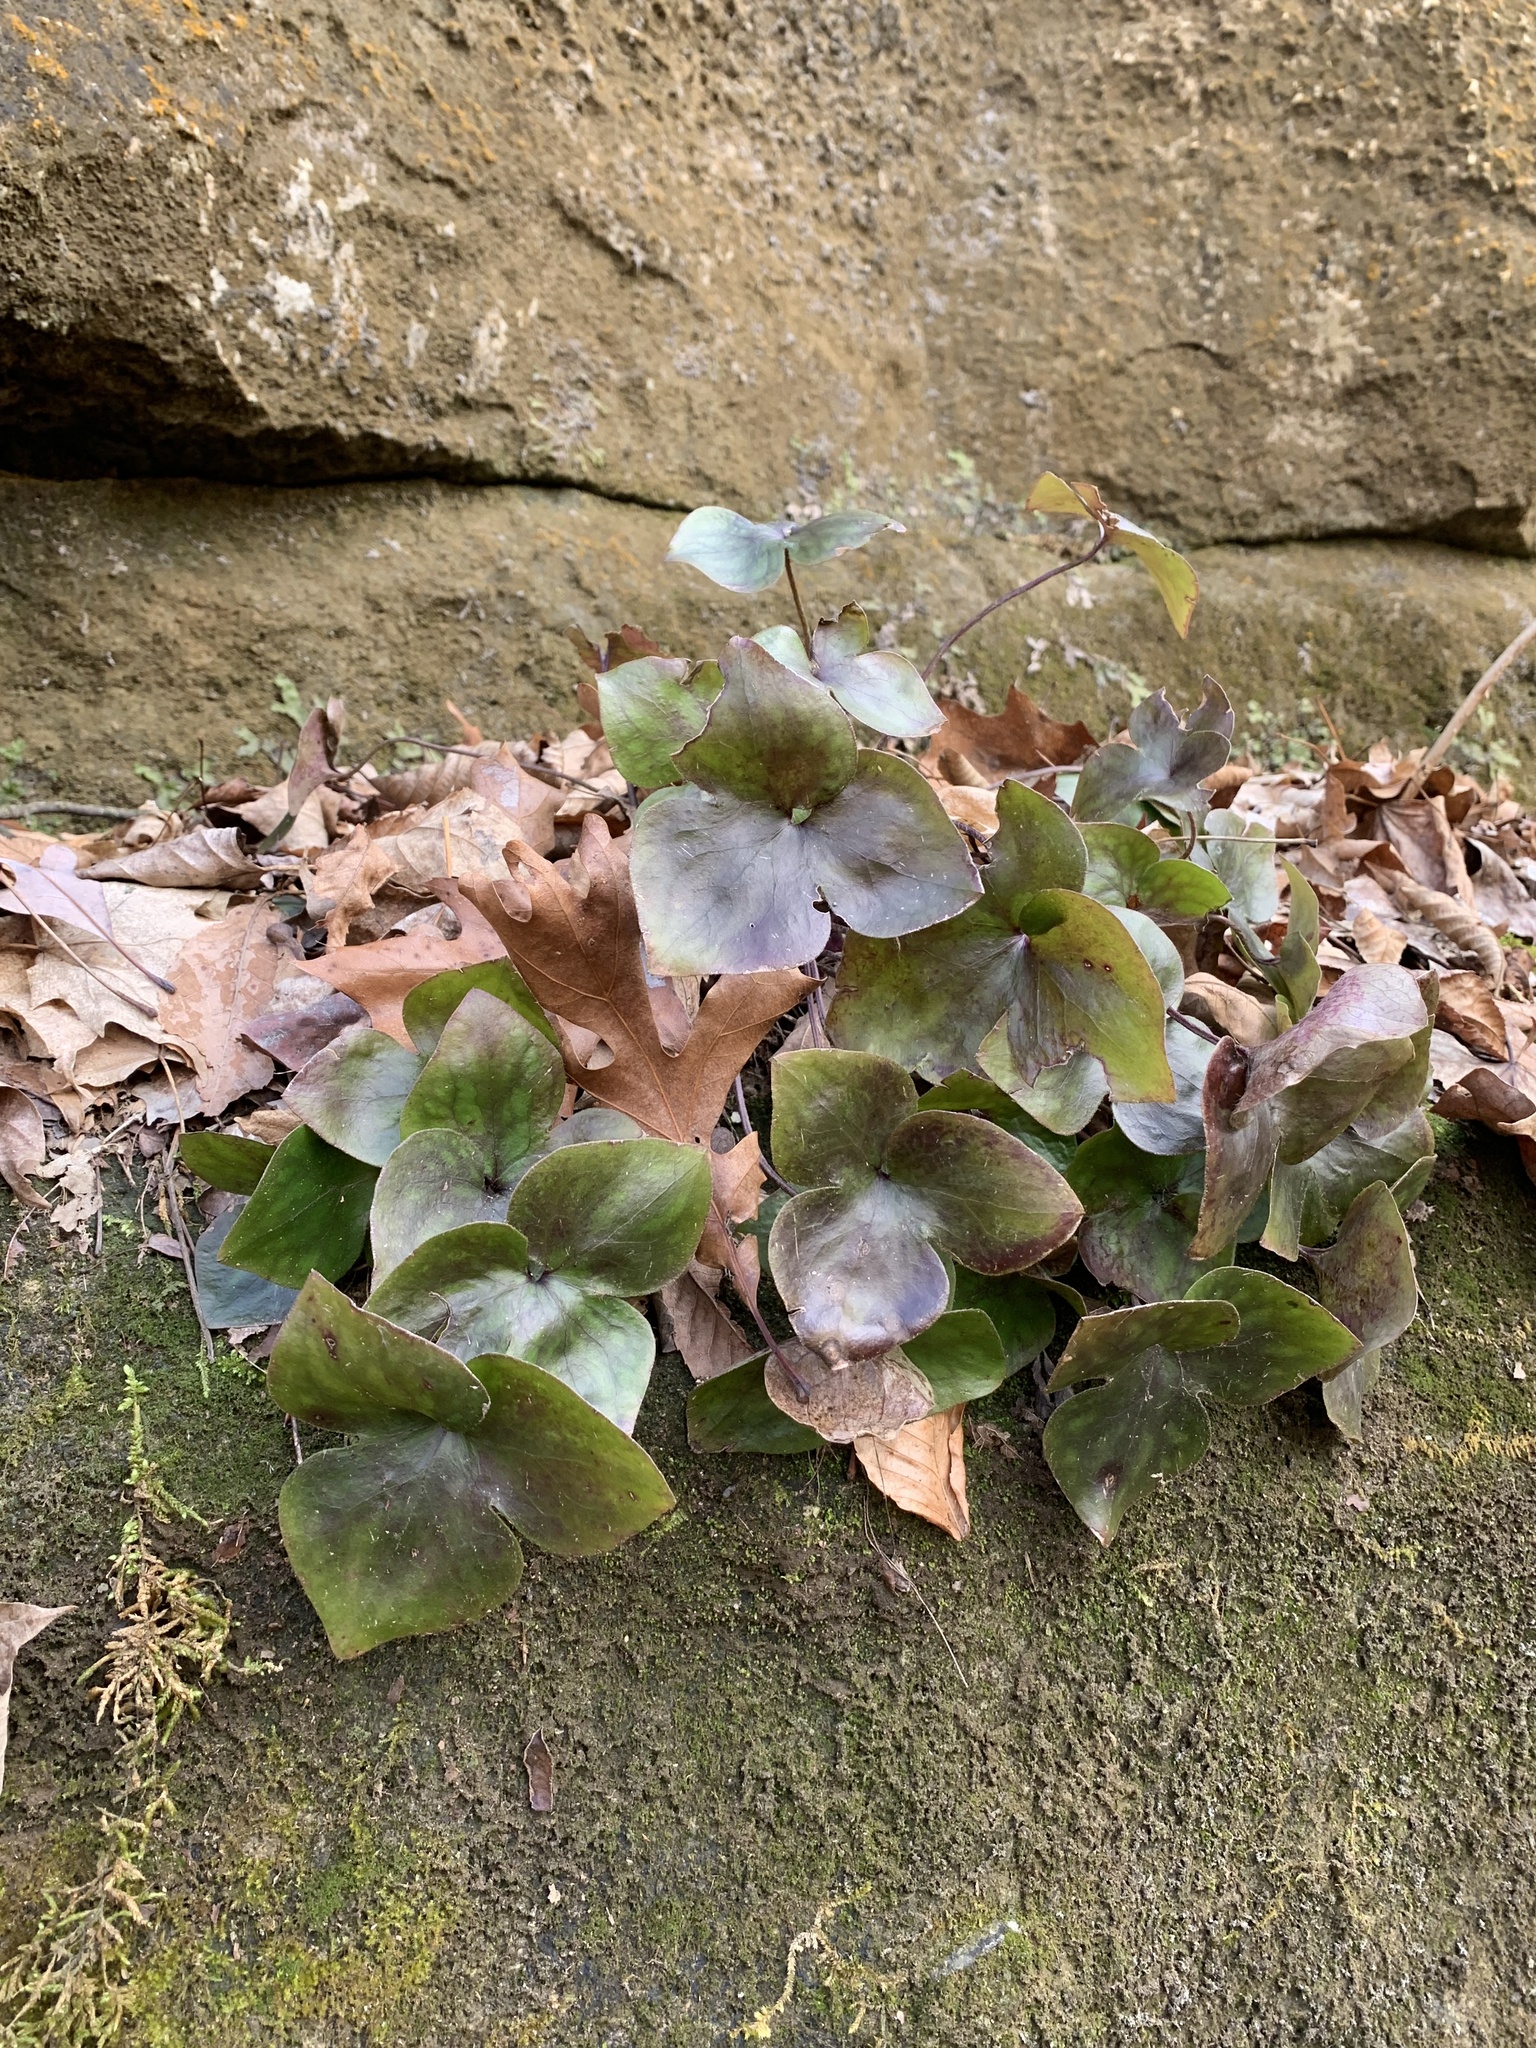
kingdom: Plantae
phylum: Tracheophyta
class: Magnoliopsida
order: Ranunculales
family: Ranunculaceae
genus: Hepatica
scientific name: Hepatica acutiloba
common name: Sharp-lobed hepatica
